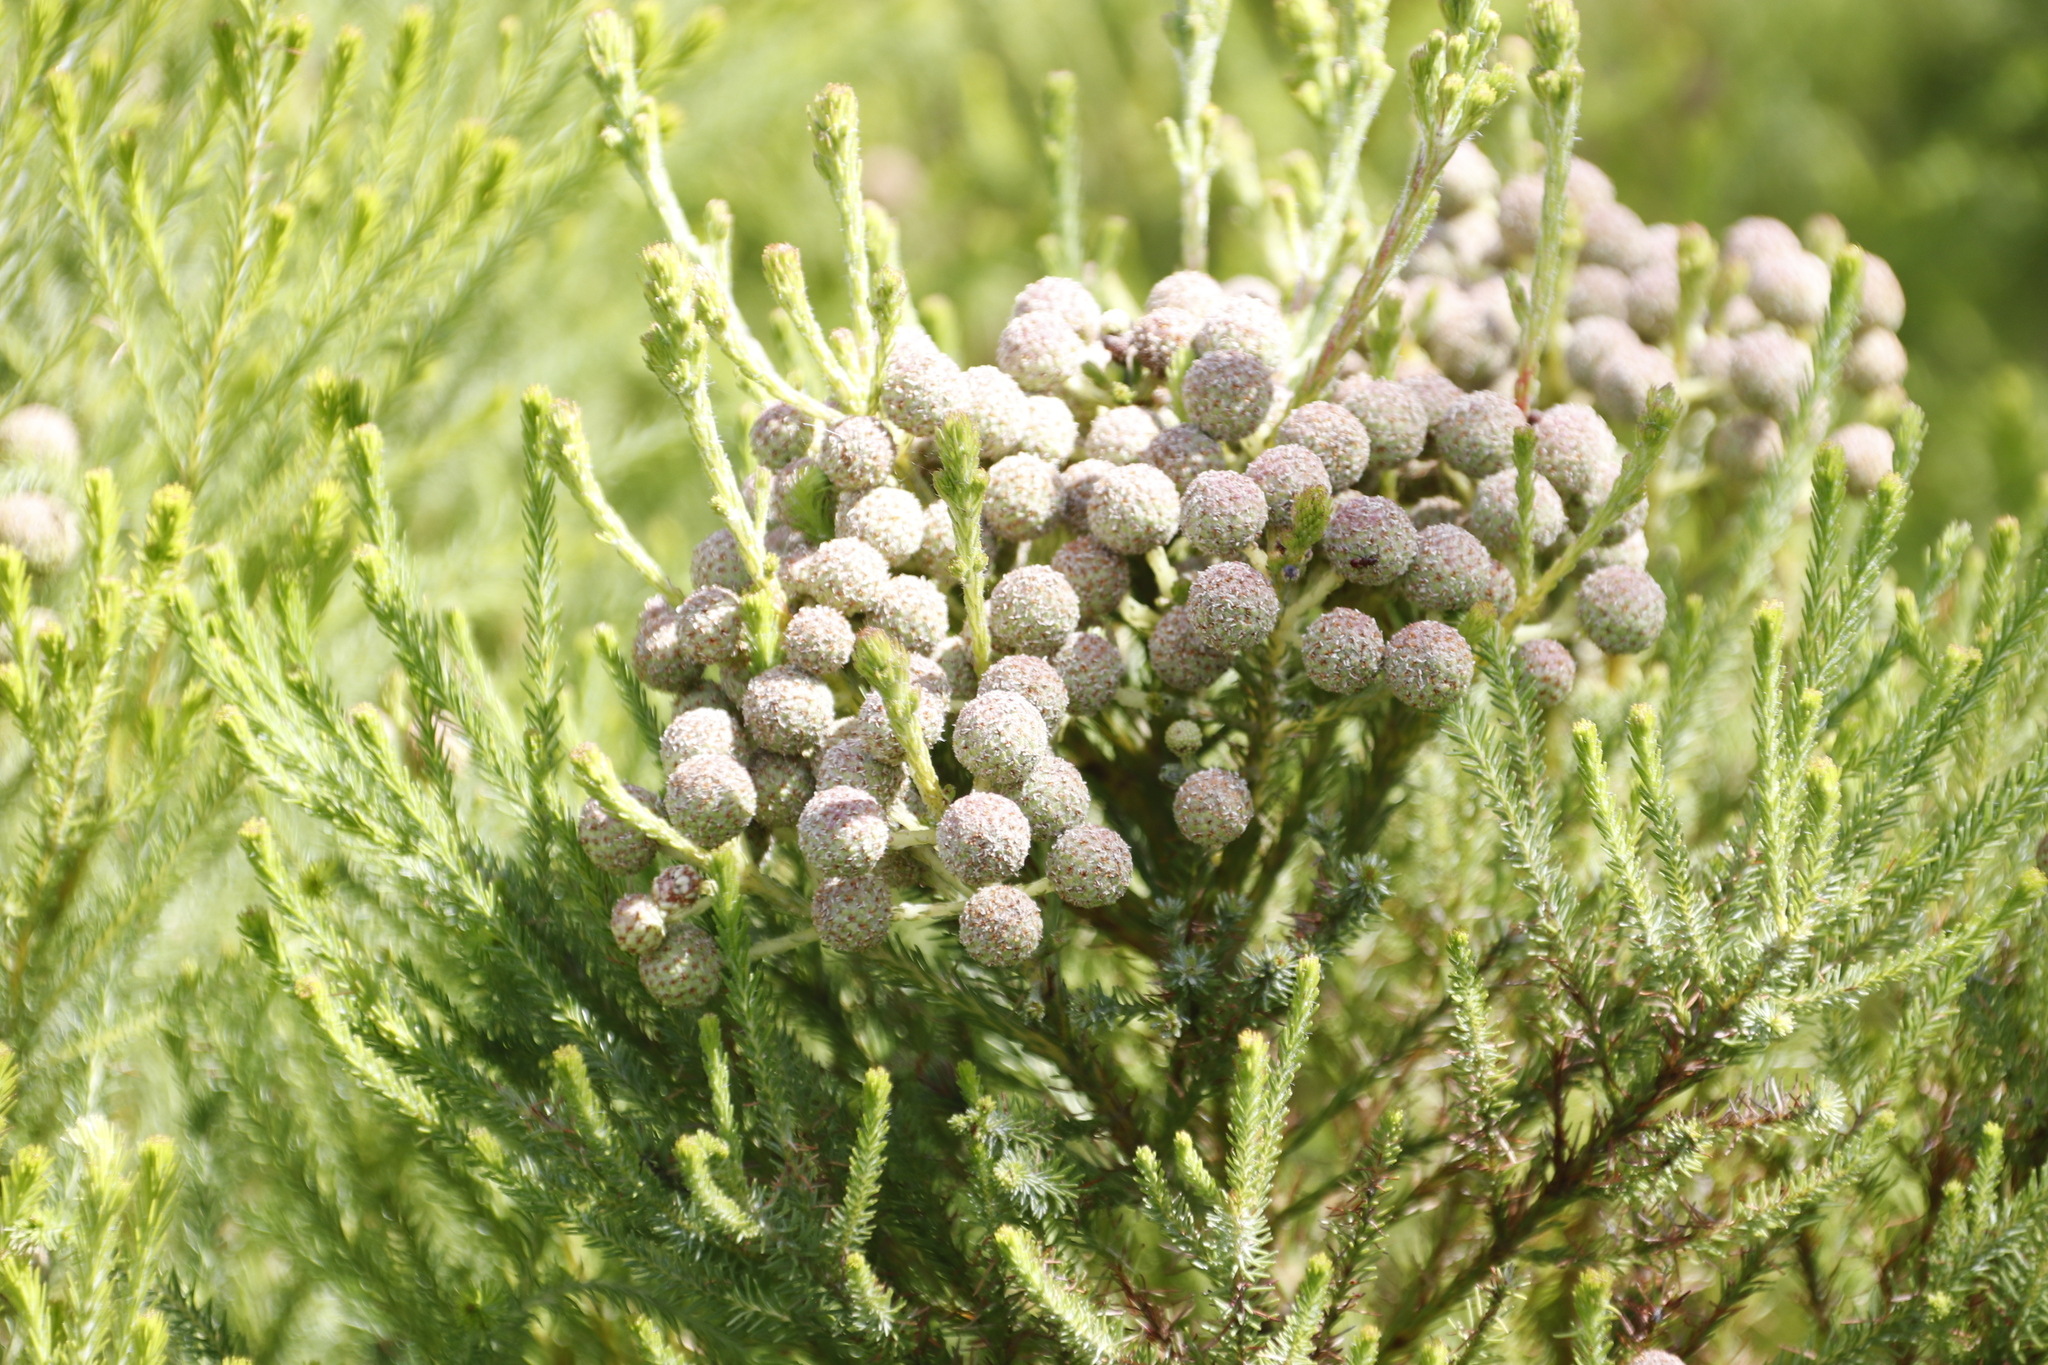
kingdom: Plantae
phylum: Tracheophyta
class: Magnoliopsida
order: Bruniales
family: Bruniaceae
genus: Berzelia
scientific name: Berzelia lanuginosa
